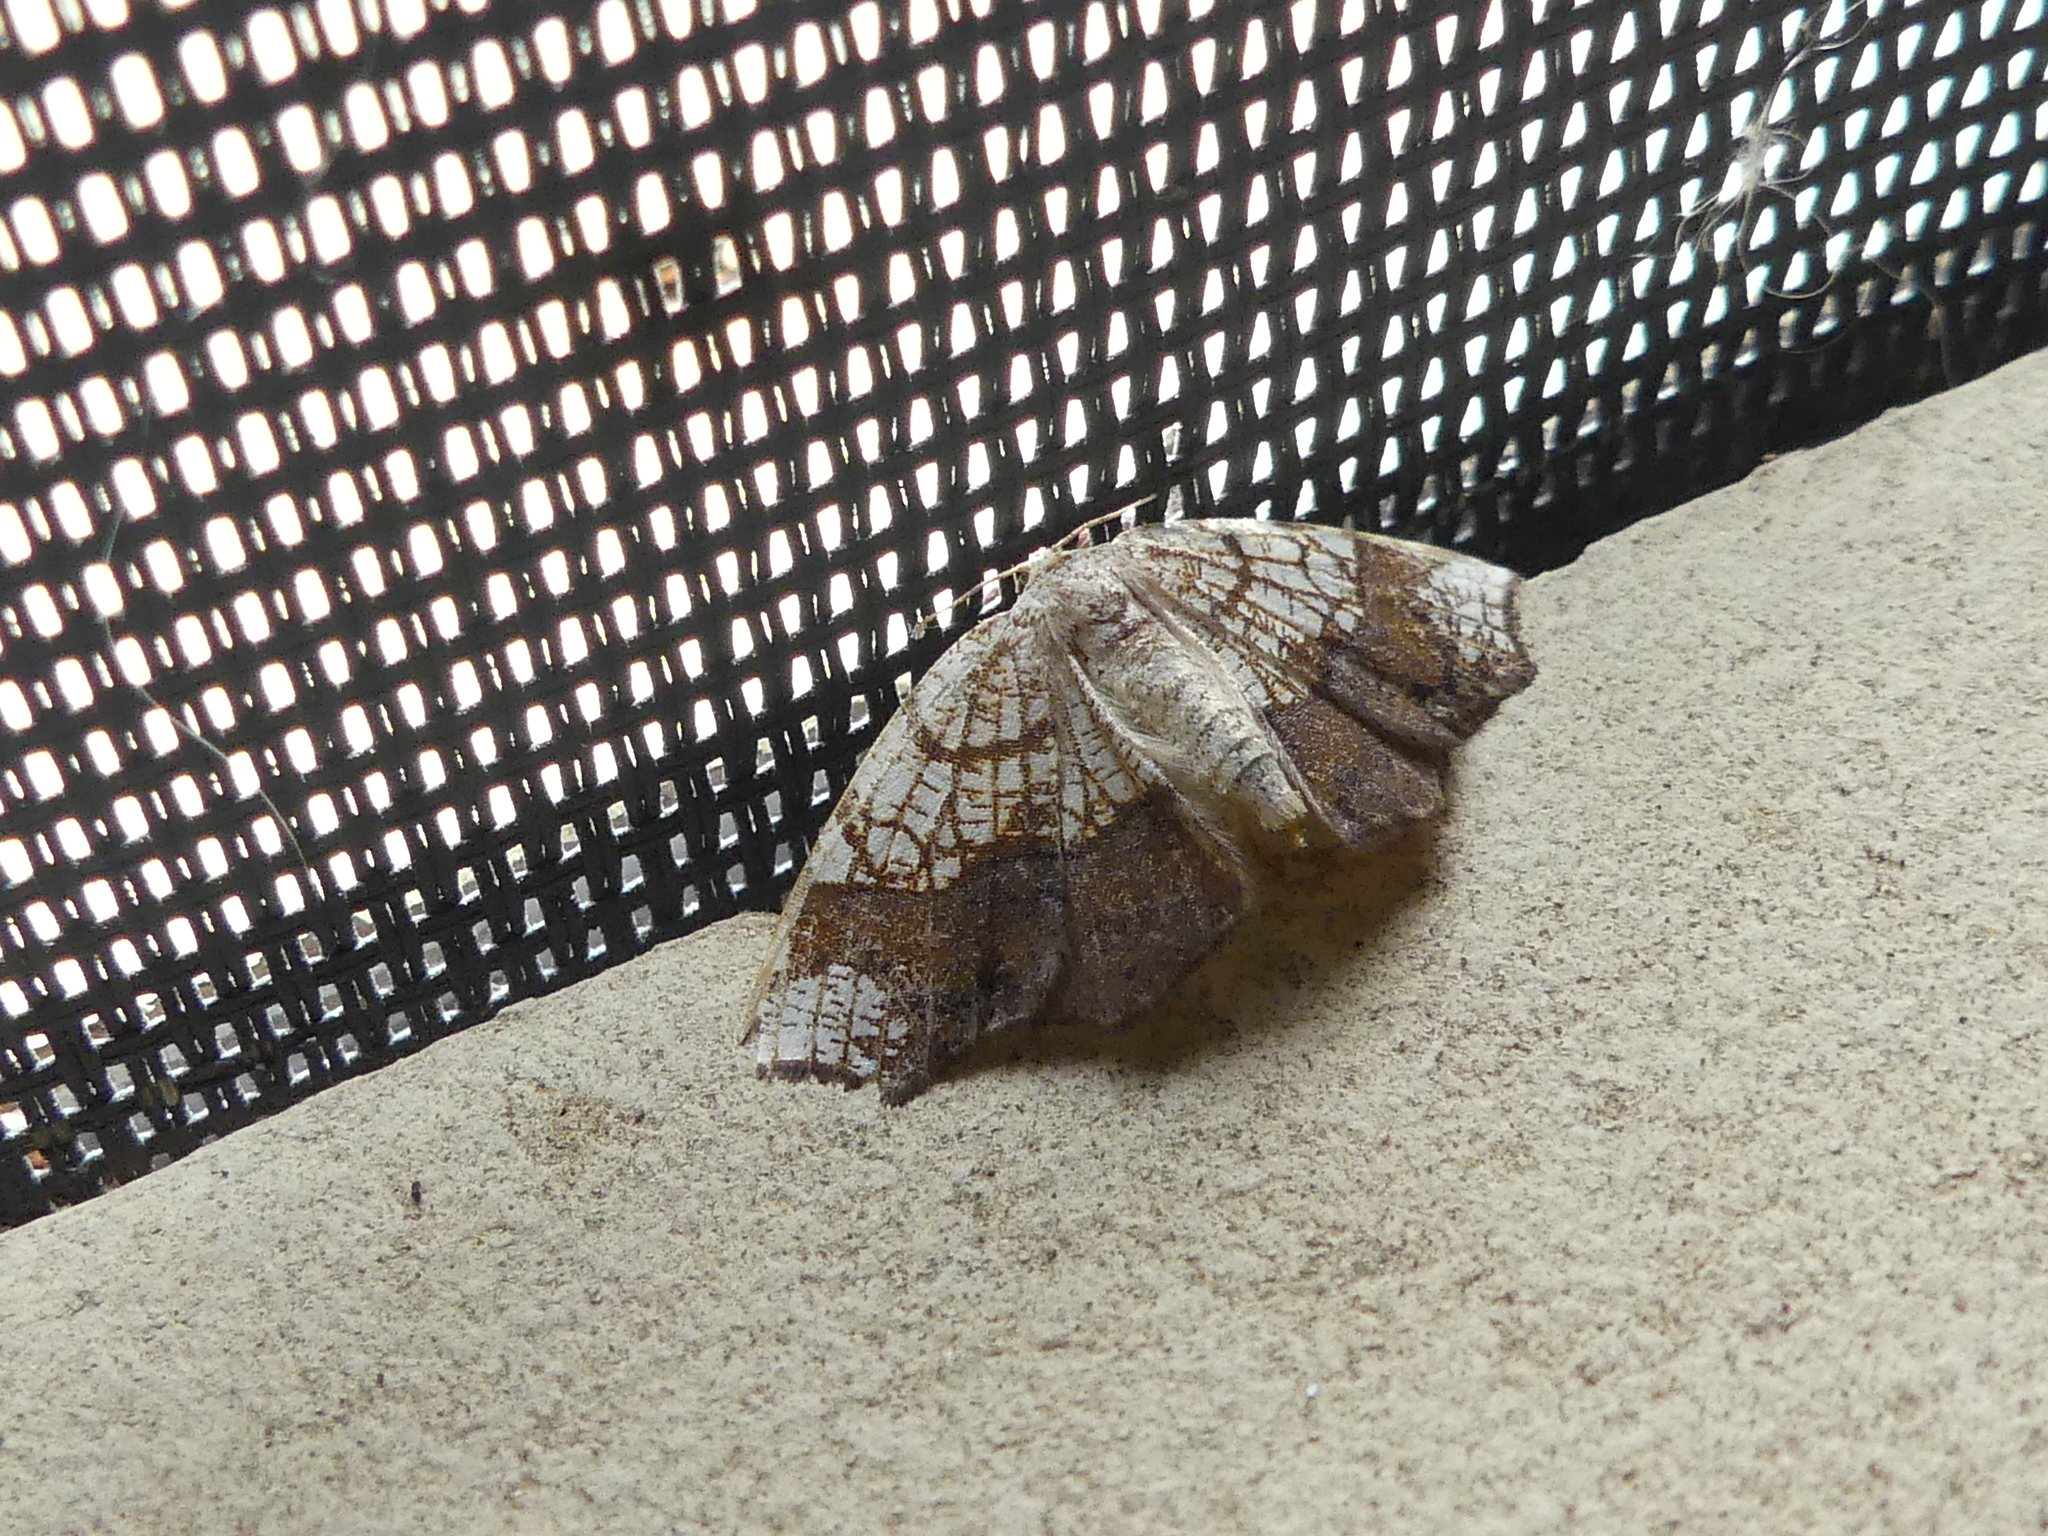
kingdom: Animalia
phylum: Arthropoda
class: Insecta
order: Lepidoptera
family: Geometridae
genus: Nematocampa
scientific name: Nematocampa resistaria
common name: Horned spanworm moth
